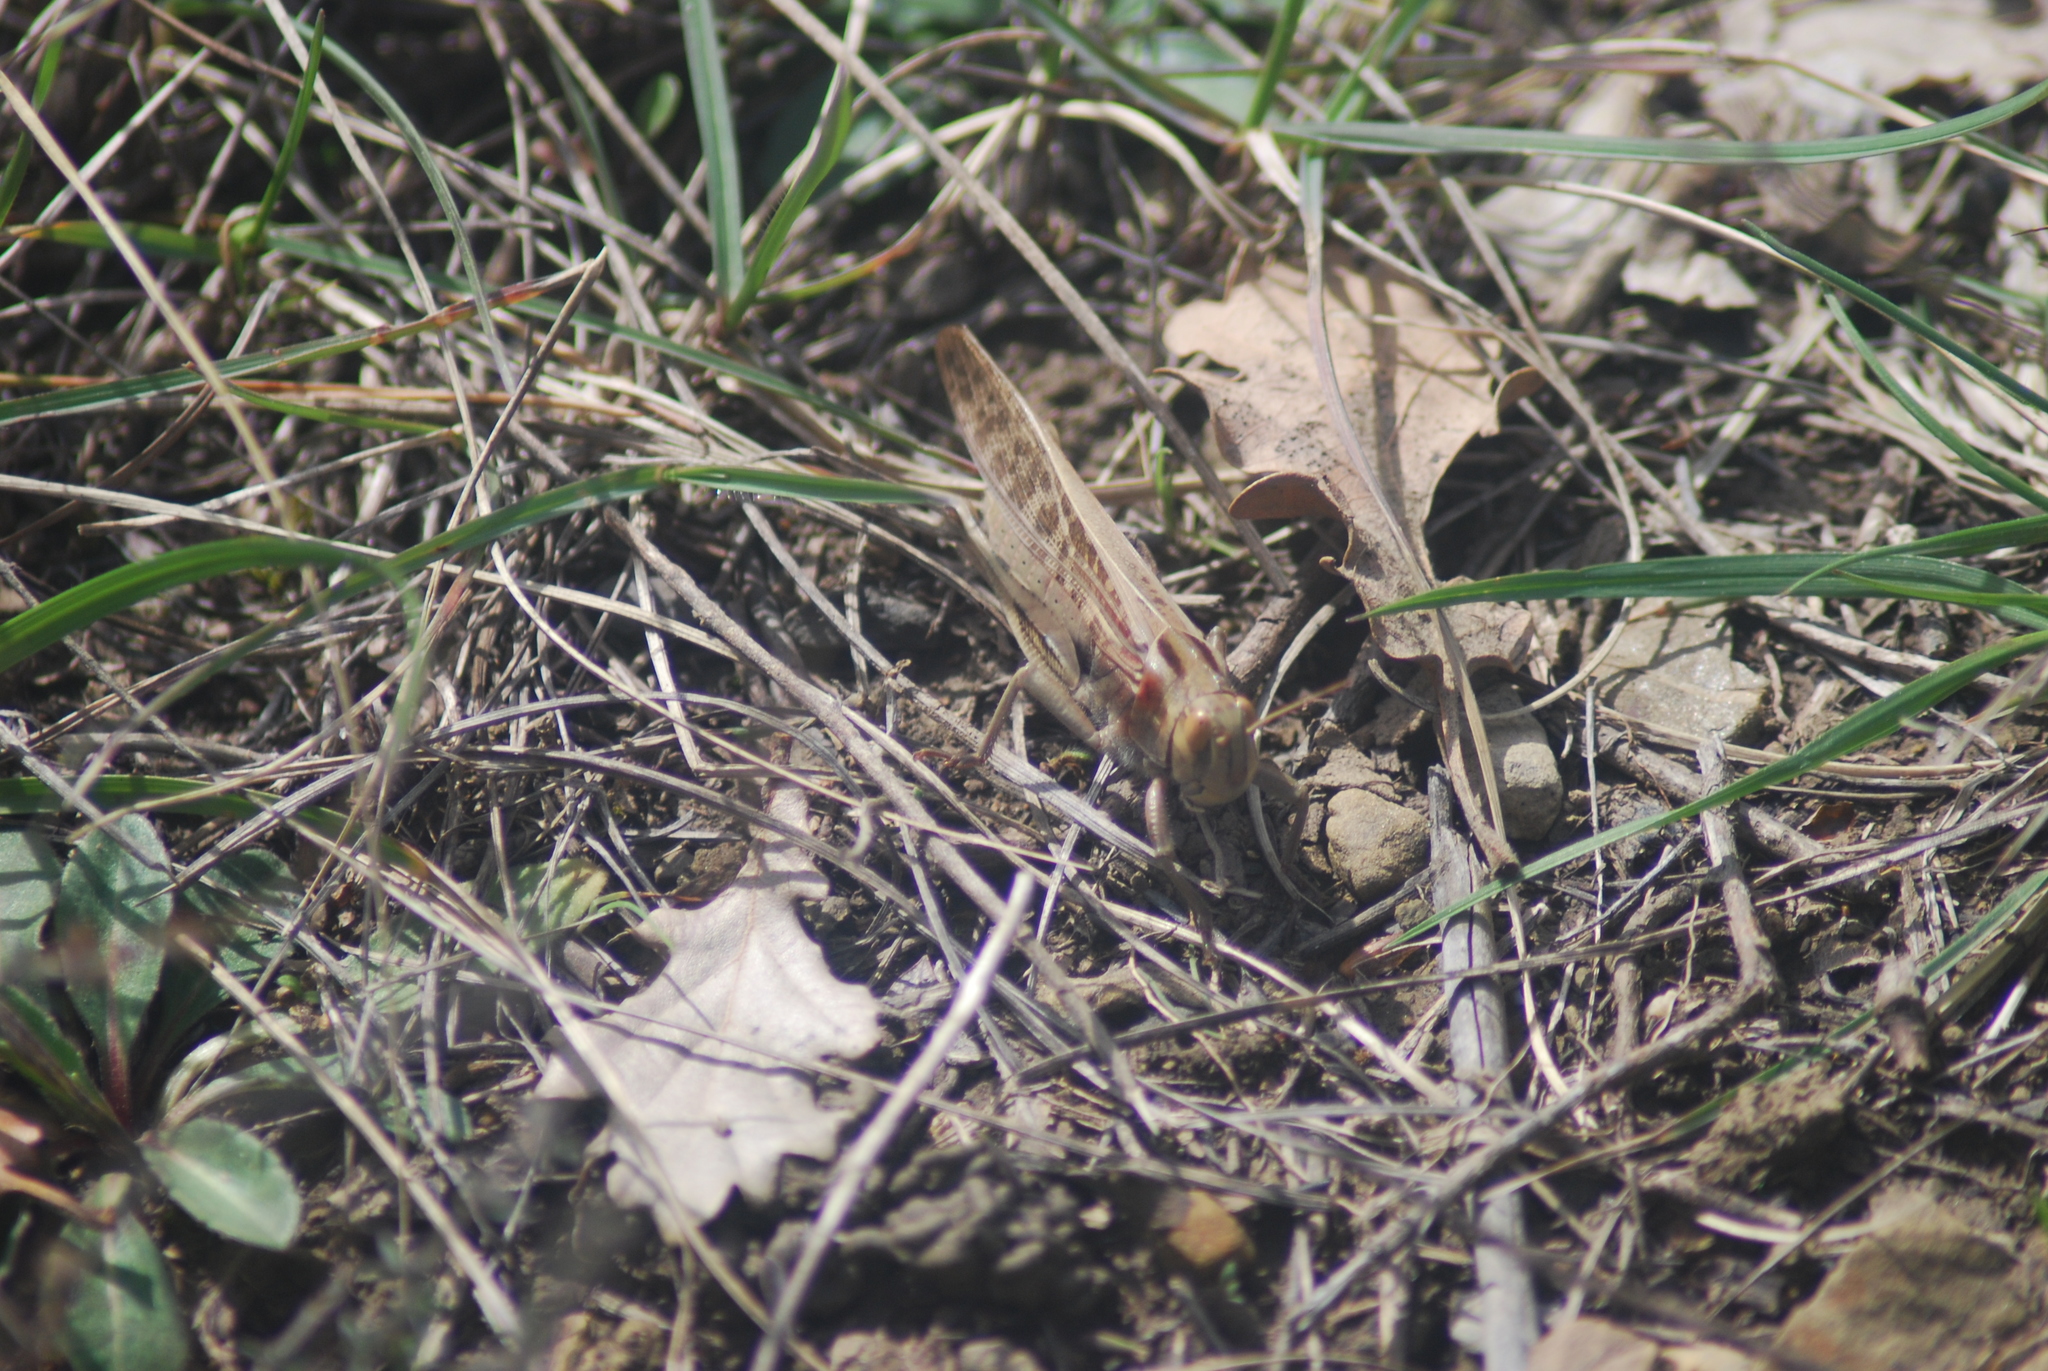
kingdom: Animalia
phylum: Arthropoda
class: Insecta
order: Orthoptera
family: Acrididae
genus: Locusta
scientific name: Locusta migratoria
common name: Migratory locust
